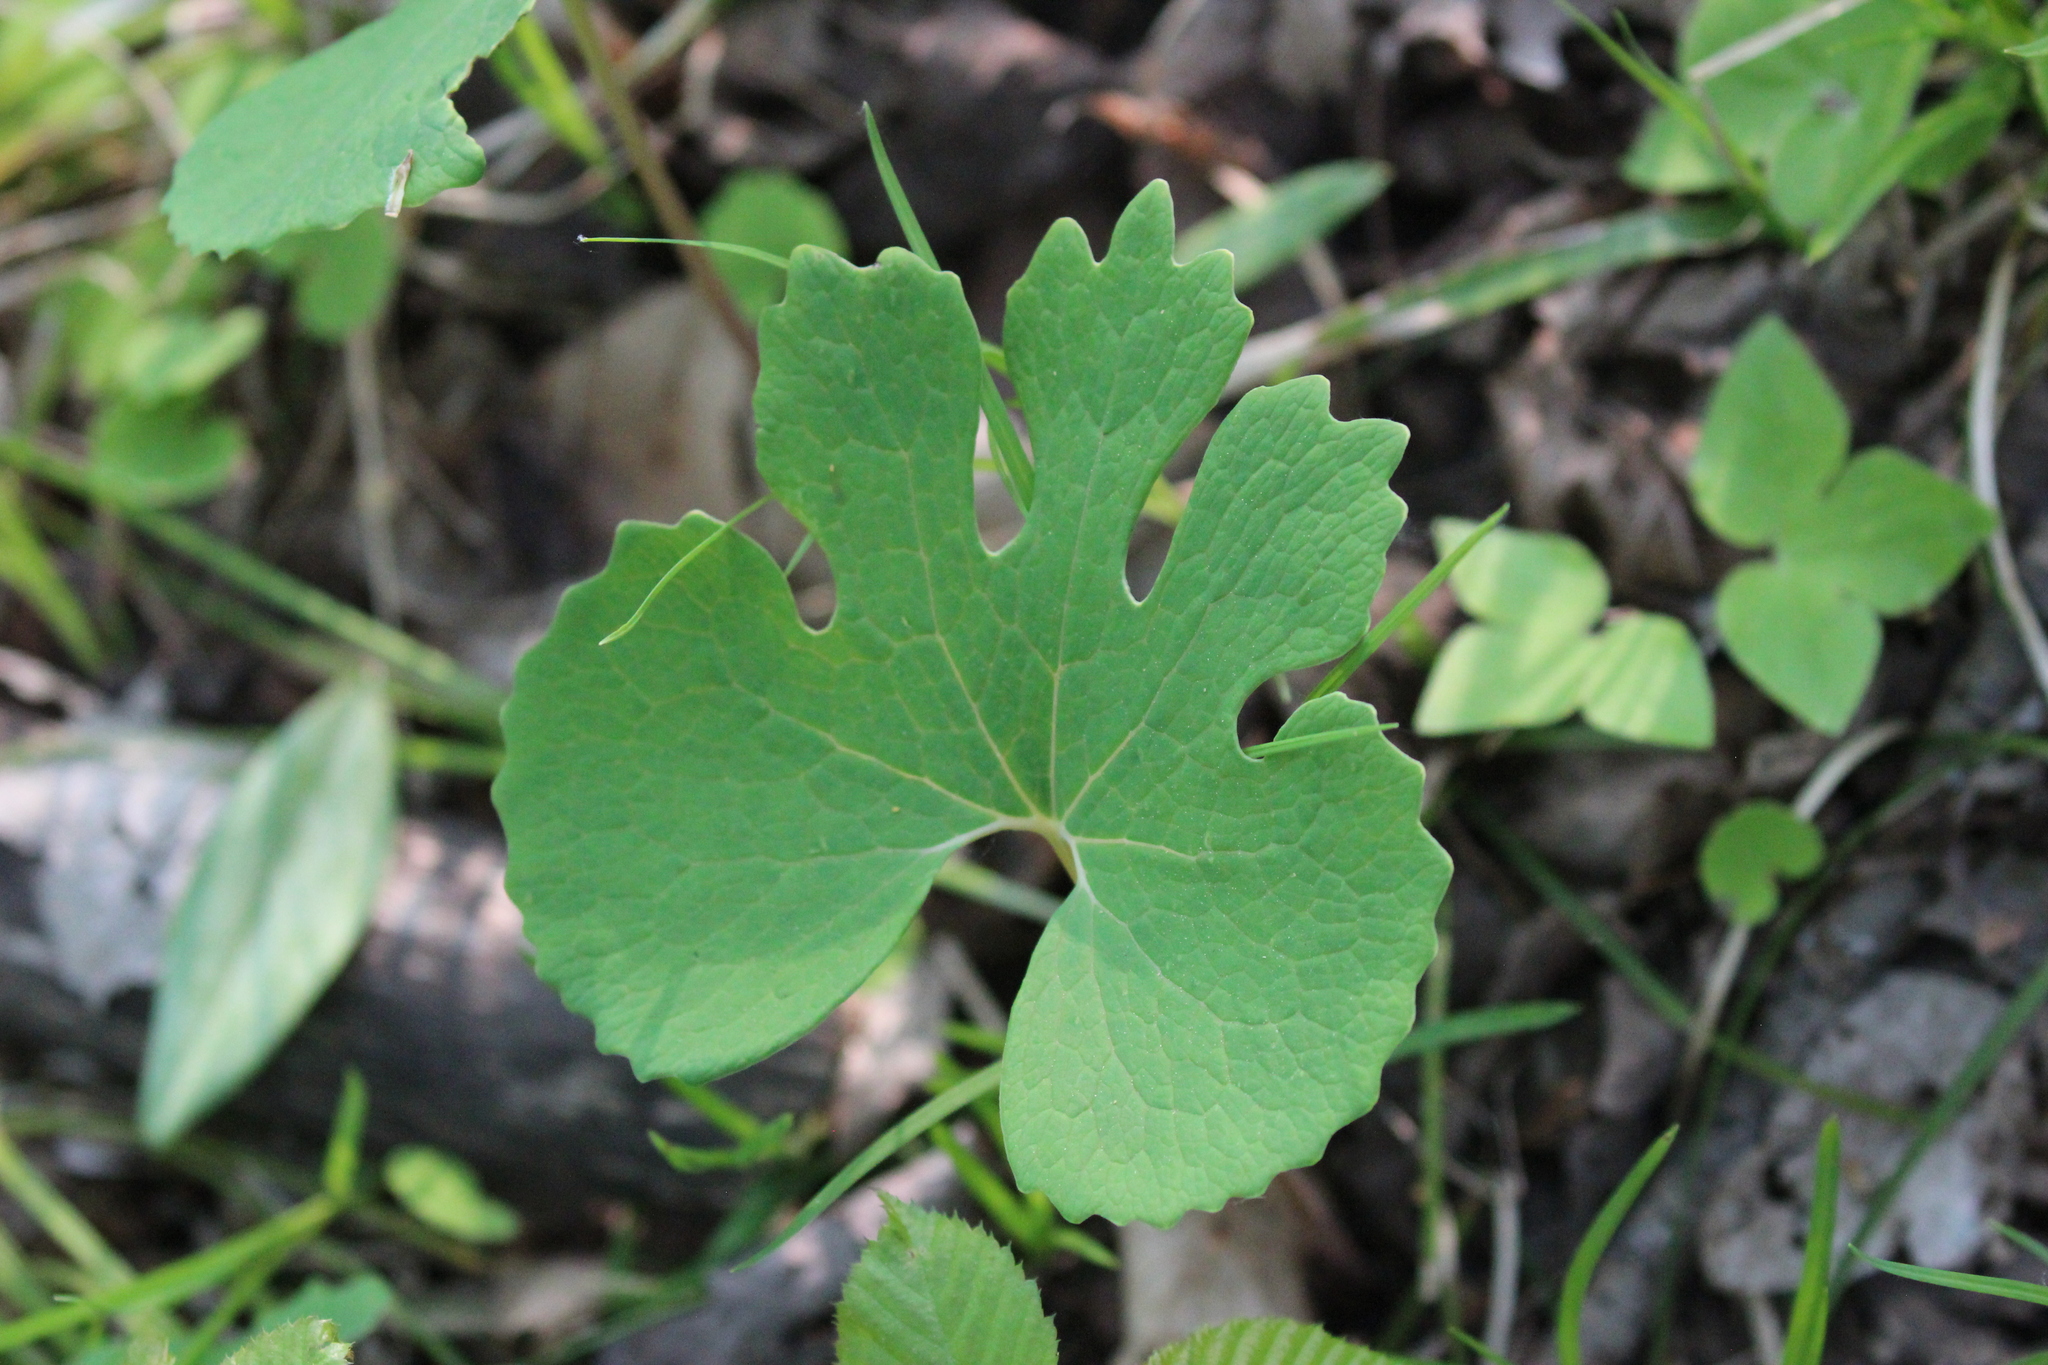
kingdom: Plantae
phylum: Tracheophyta
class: Magnoliopsida
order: Ranunculales
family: Papaveraceae
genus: Sanguinaria
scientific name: Sanguinaria canadensis
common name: Bloodroot
